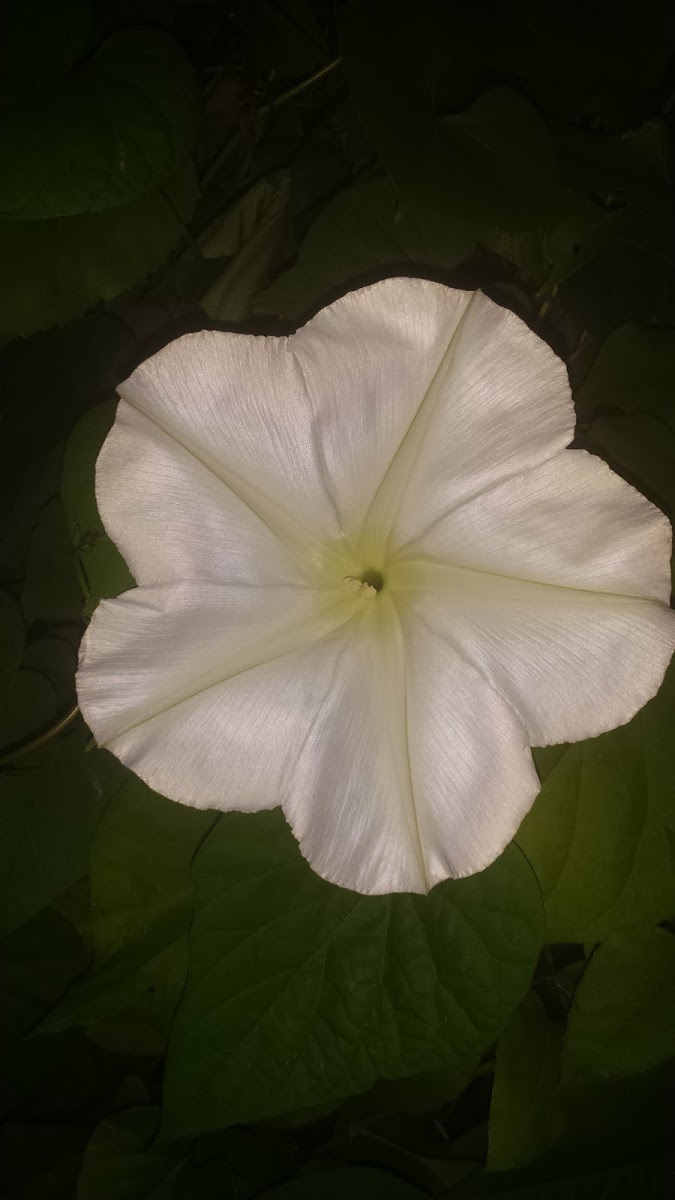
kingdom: Plantae
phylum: Tracheophyta
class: Magnoliopsida
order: Solanales
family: Convolvulaceae
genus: Ipomoea
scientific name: Ipomoea alba
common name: Moonflower
